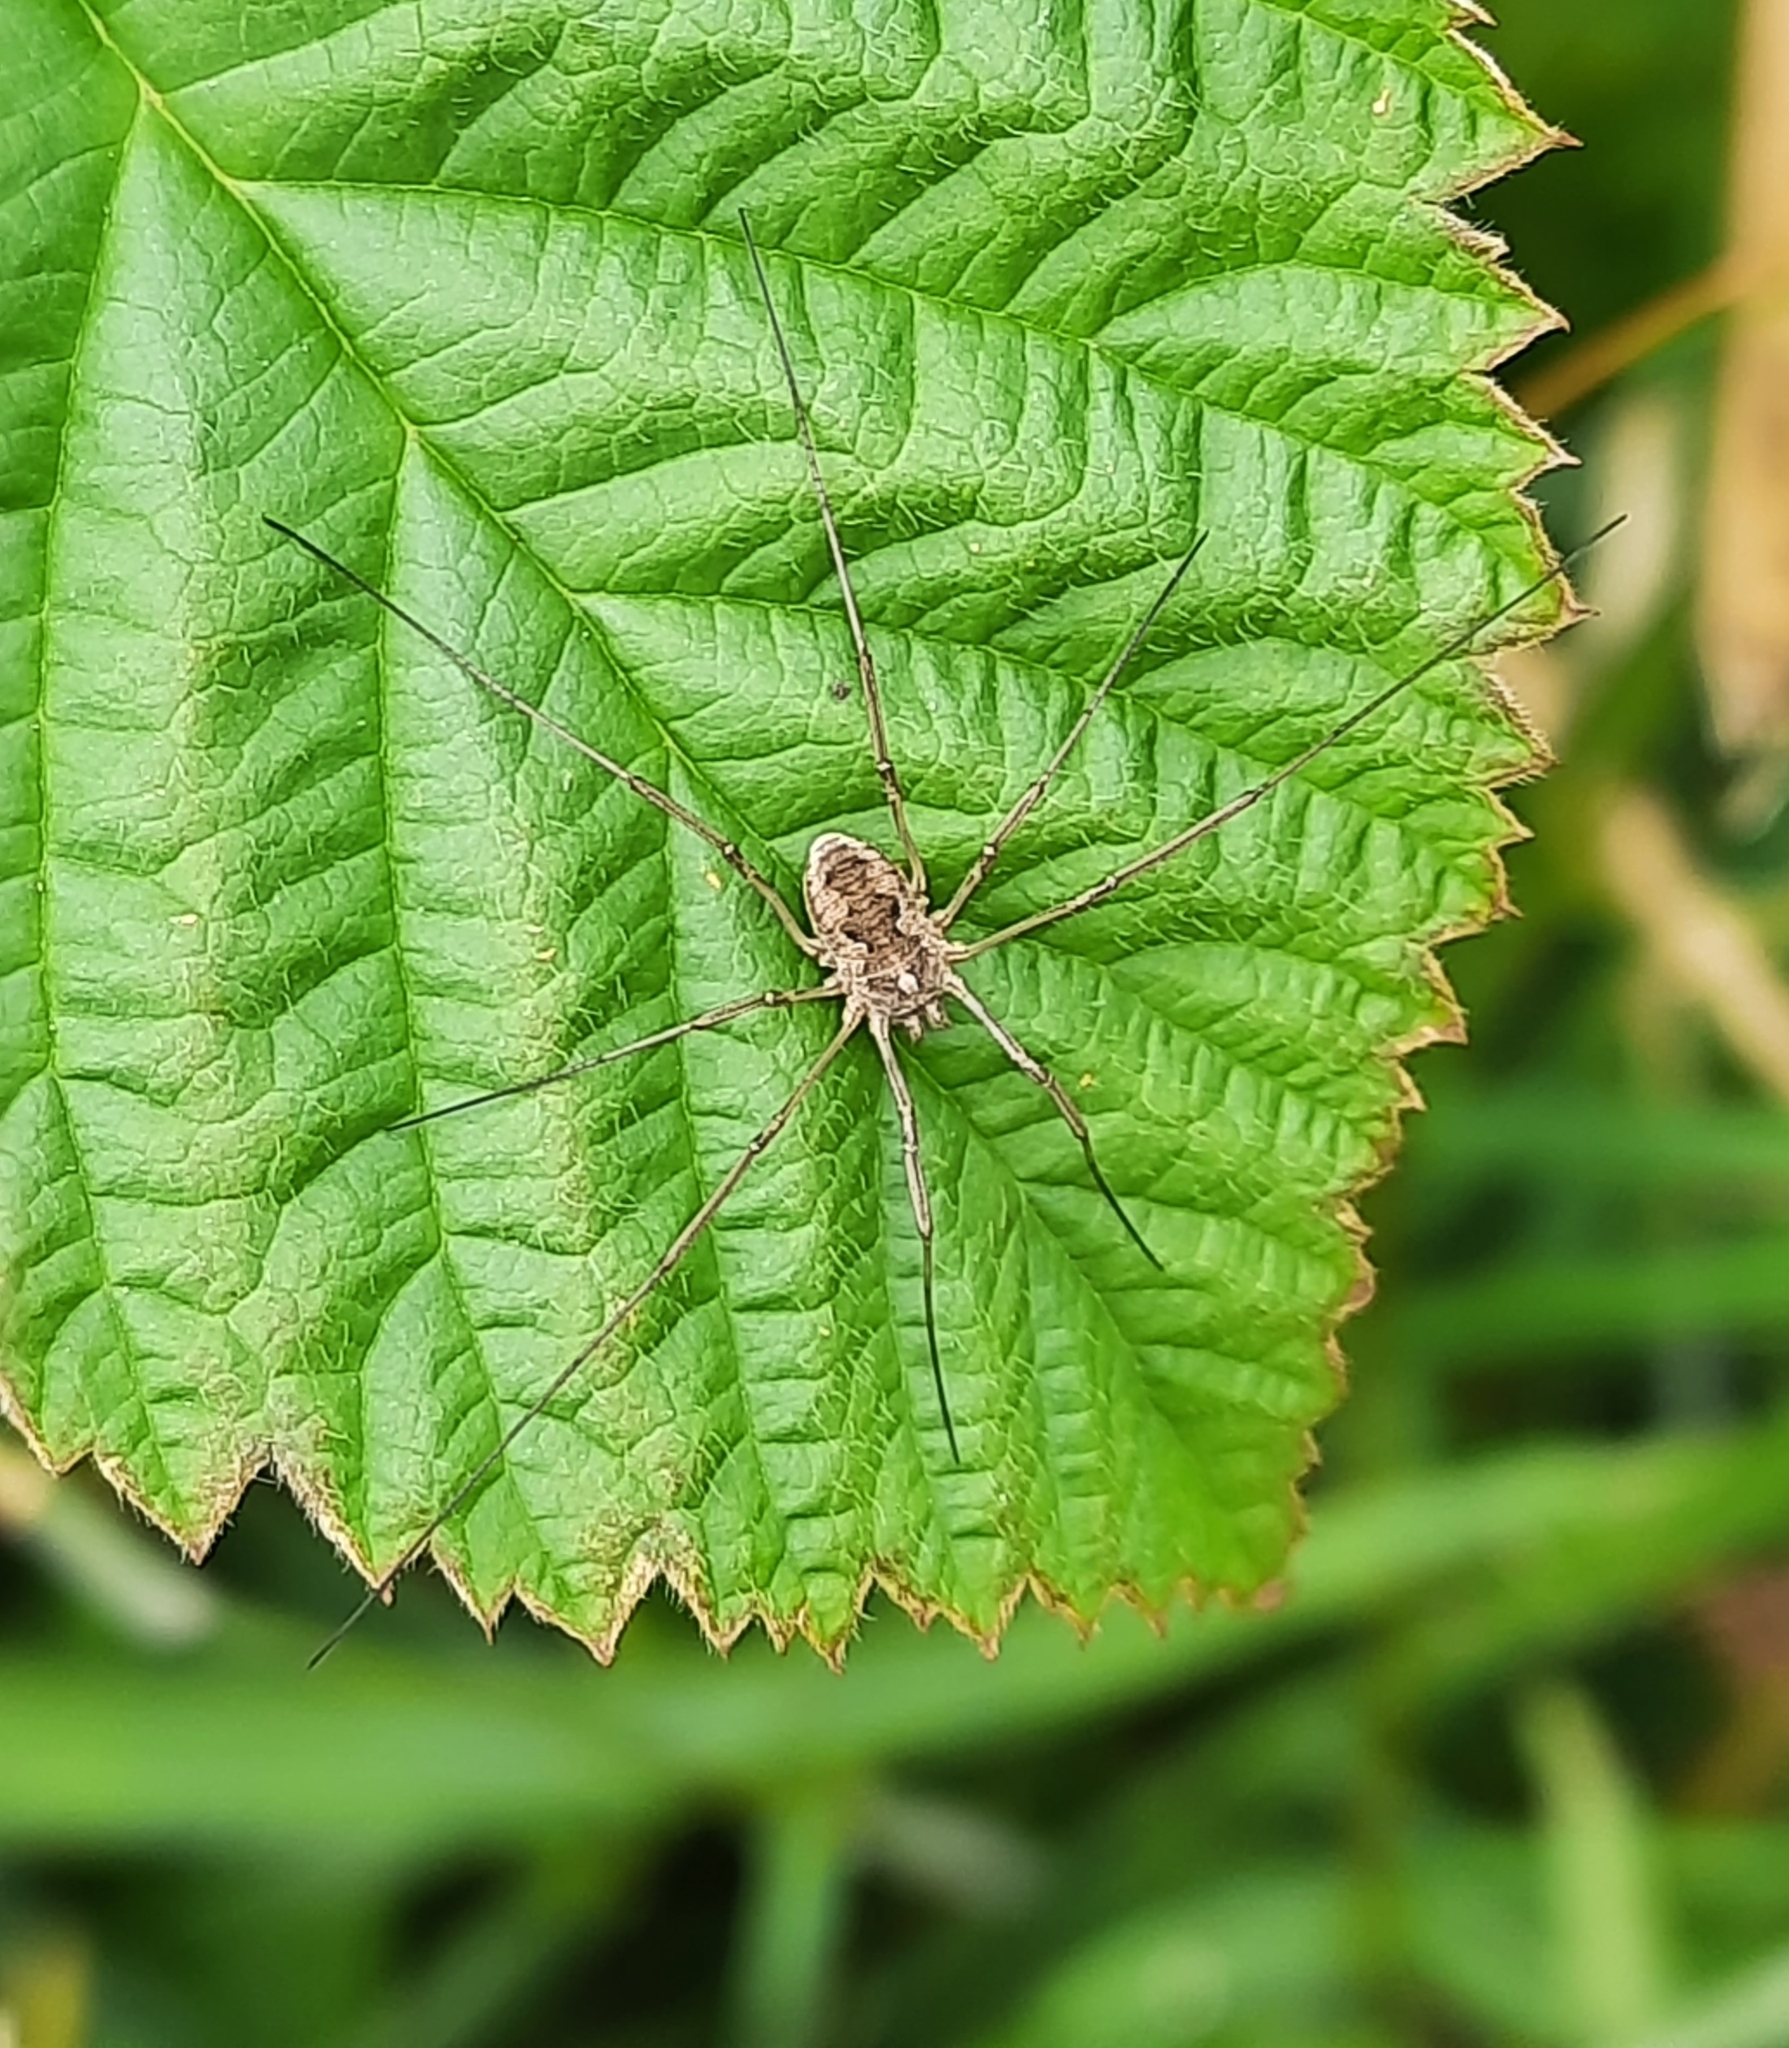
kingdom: Animalia
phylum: Arthropoda
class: Arachnida
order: Opiliones
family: Phalangiidae
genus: Phalangium
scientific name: Phalangium opilio
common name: Daddy longleg
